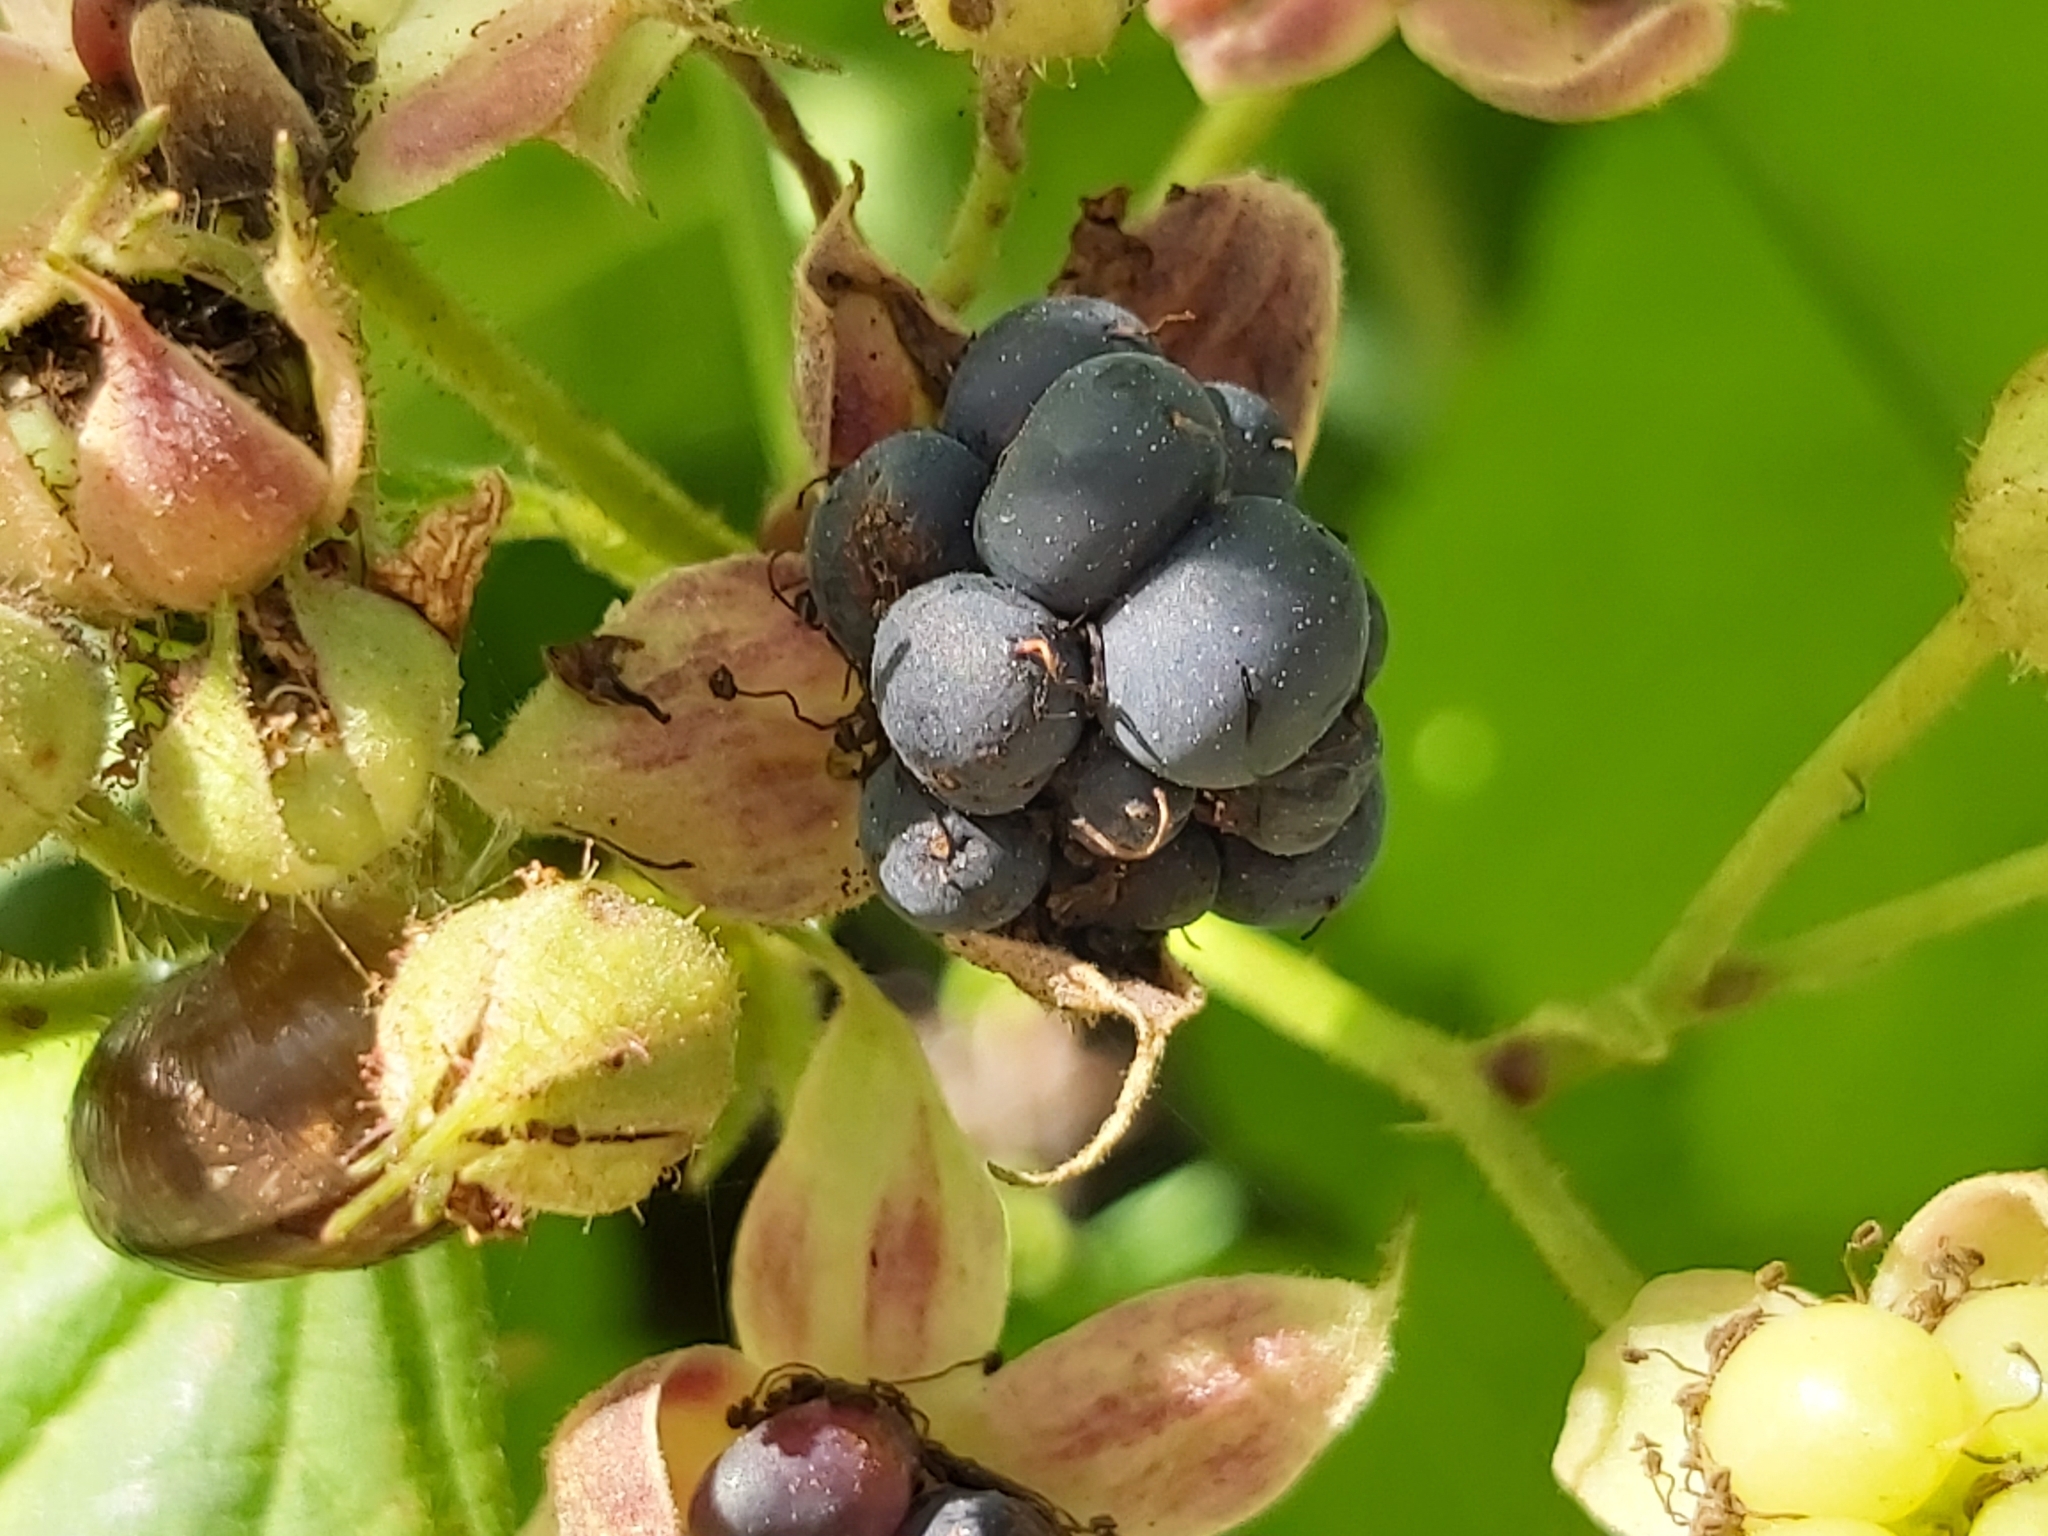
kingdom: Plantae
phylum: Tracheophyta
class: Magnoliopsida
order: Rosales
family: Rosaceae
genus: Rubus
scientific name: Rubus caesius
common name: Dewberry
